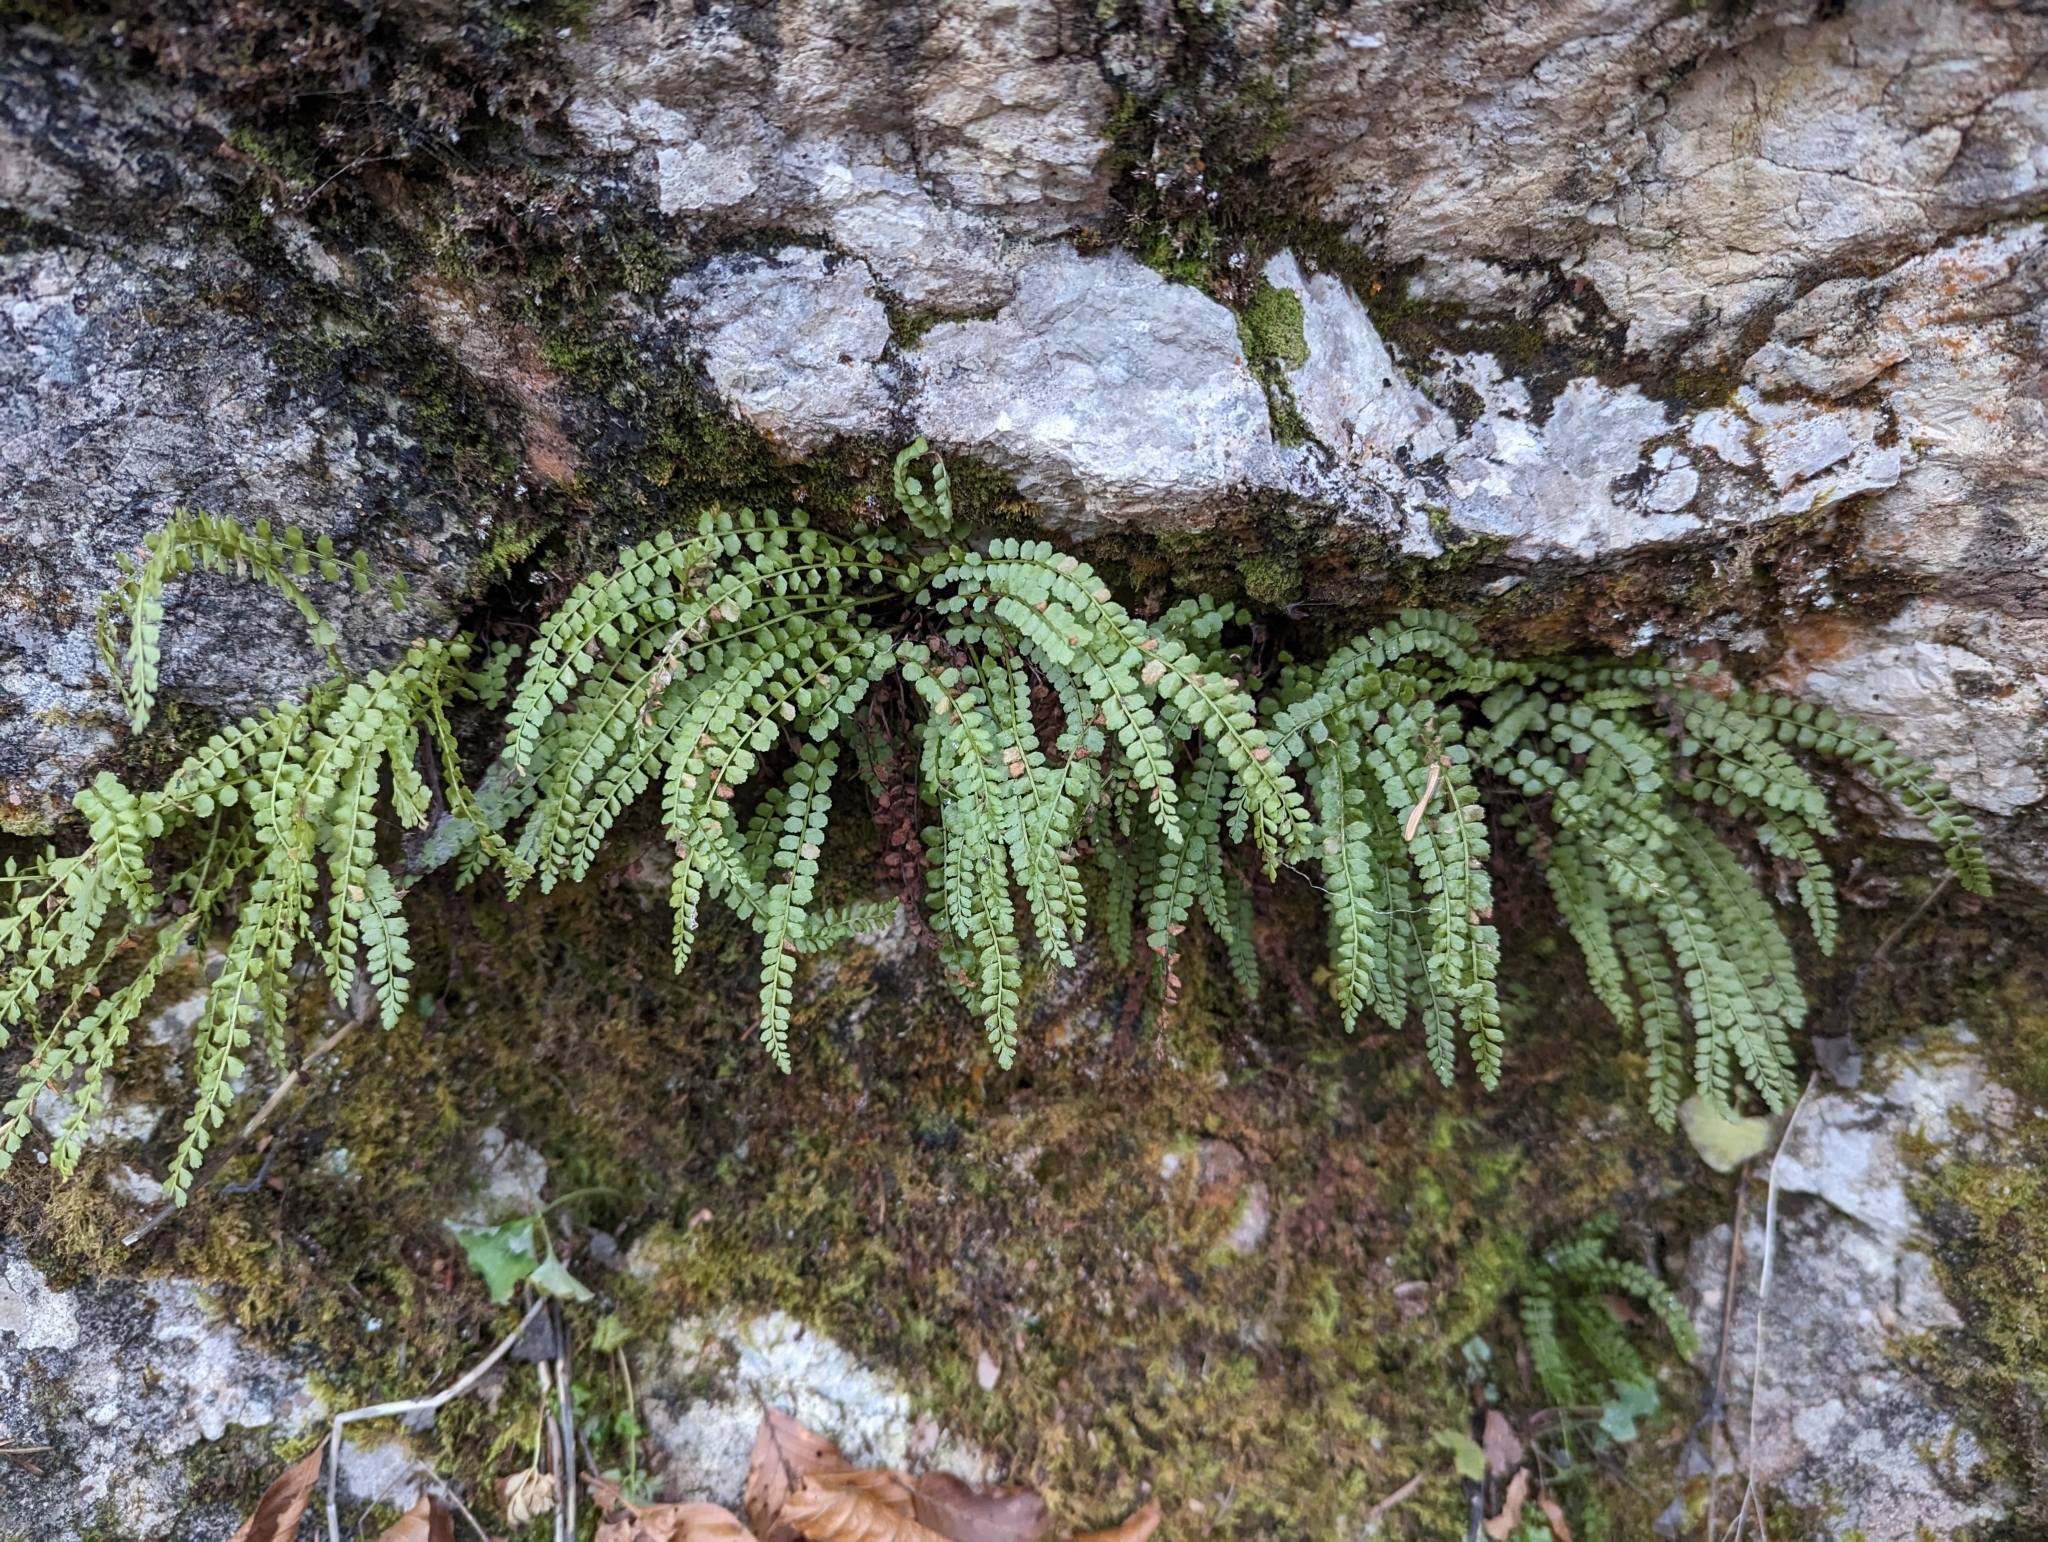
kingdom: Plantae
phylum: Tracheophyta
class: Polypodiopsida
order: Polypodiales
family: Aspleniaceae
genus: Asplenium
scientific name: Asplenium viride
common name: Green spleenwort
